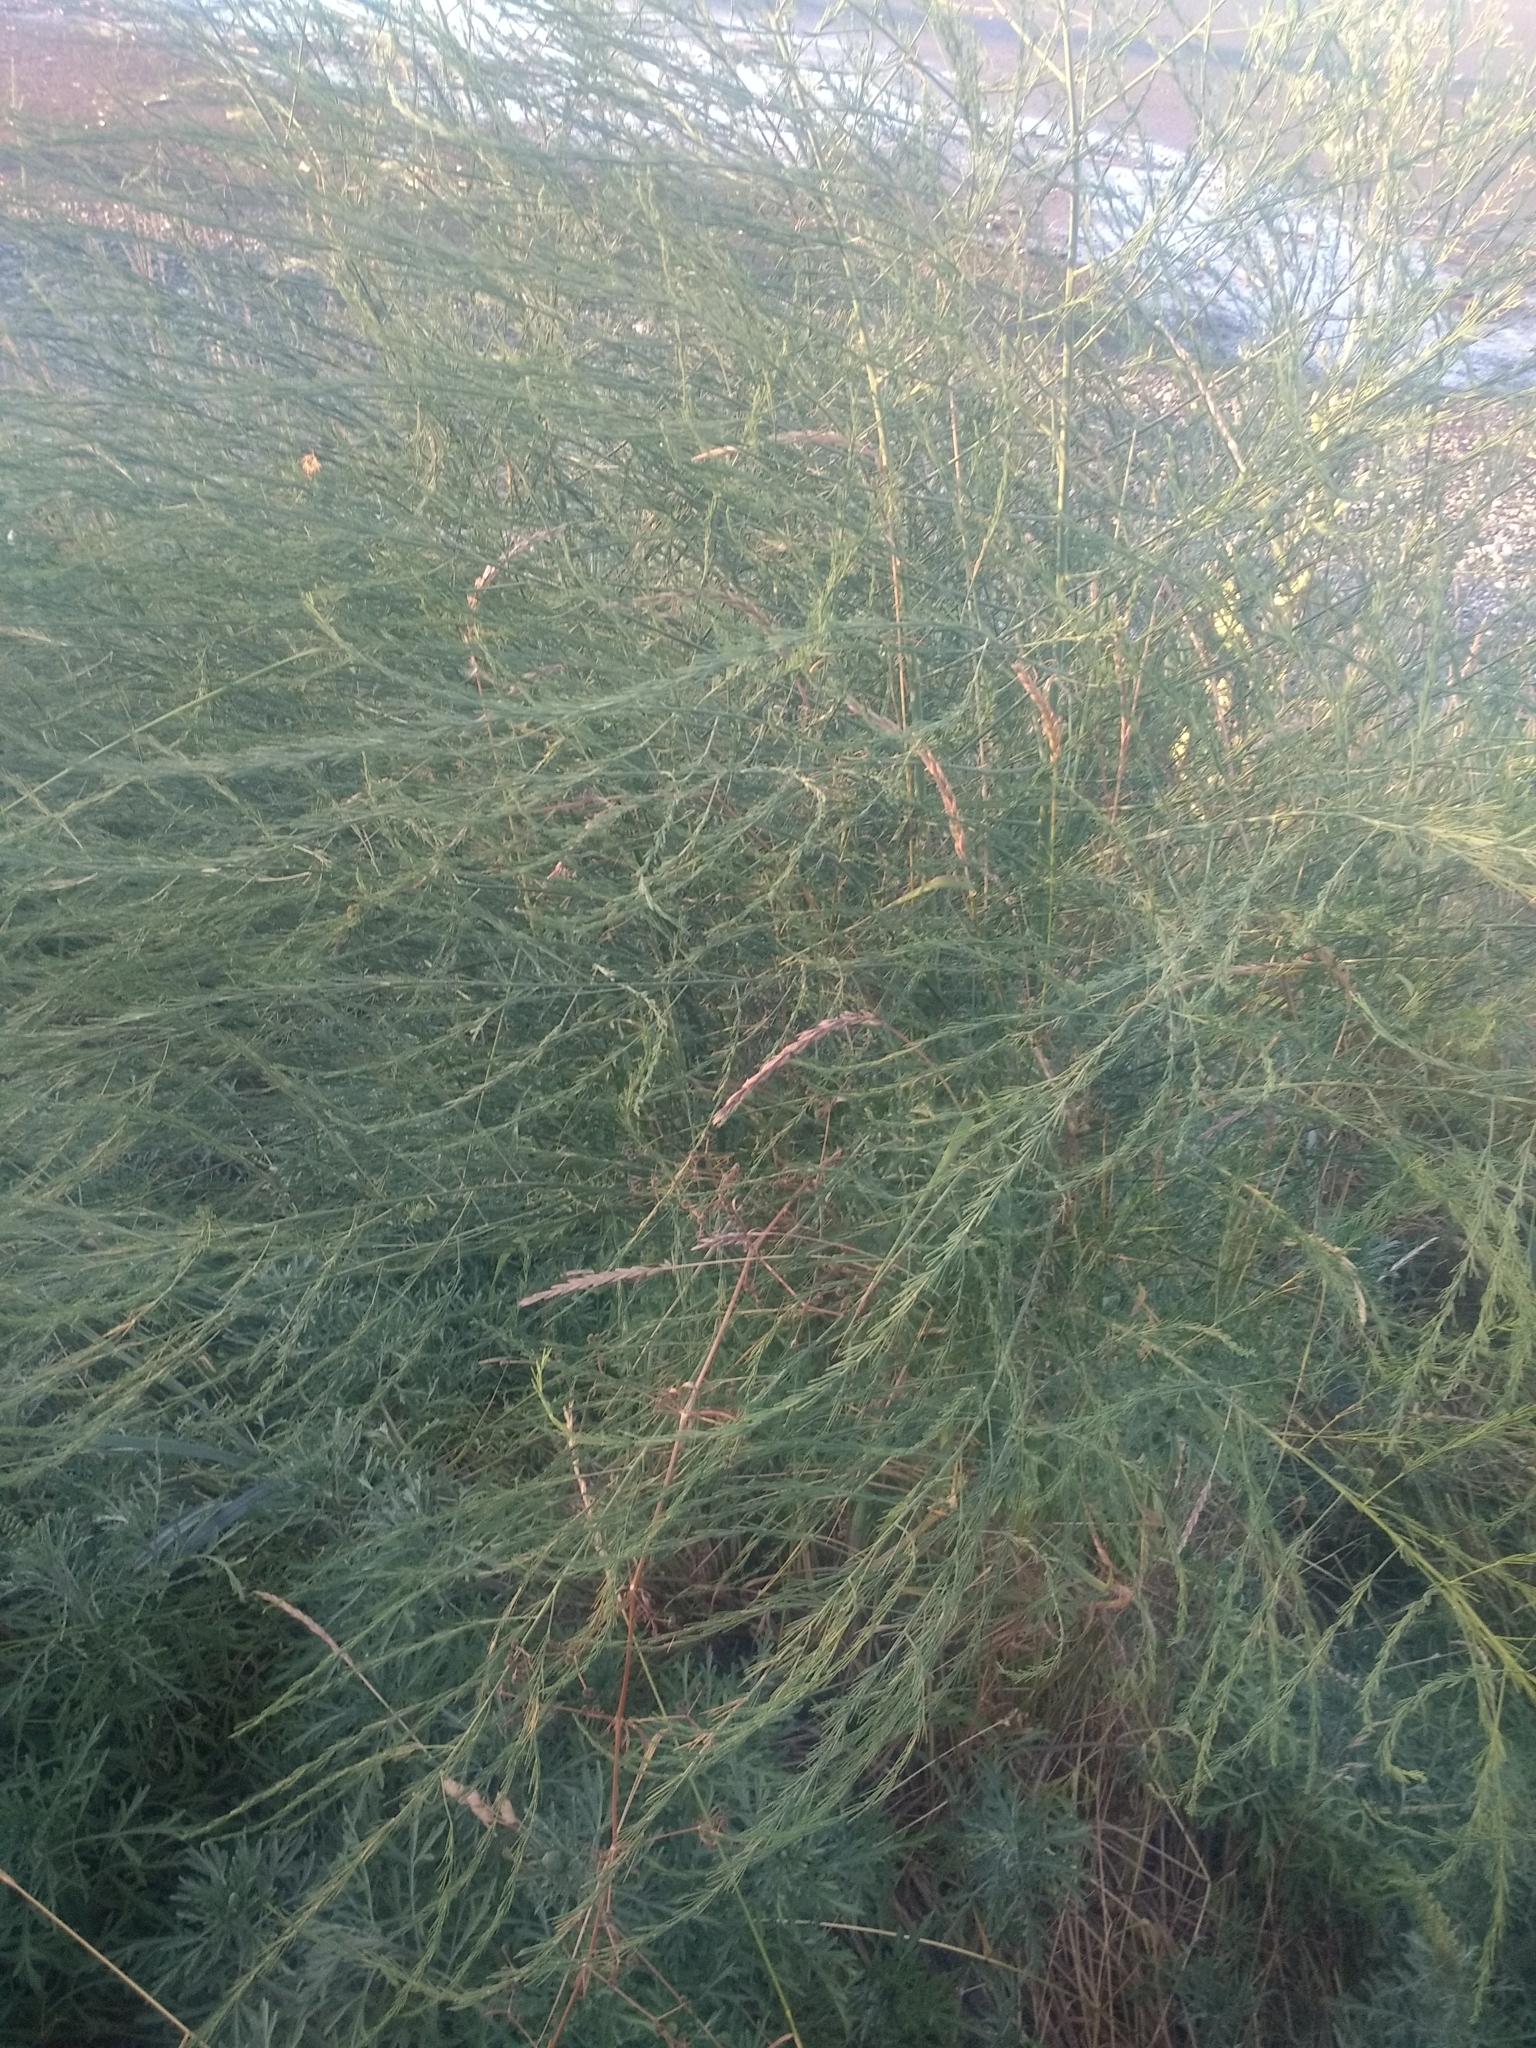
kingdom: Plantae
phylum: Tracheophyta
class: Liliopsida
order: Asparagales
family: Asparagaceae
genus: Asparagus
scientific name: Asparagus officinalis
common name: Garden asparagus
